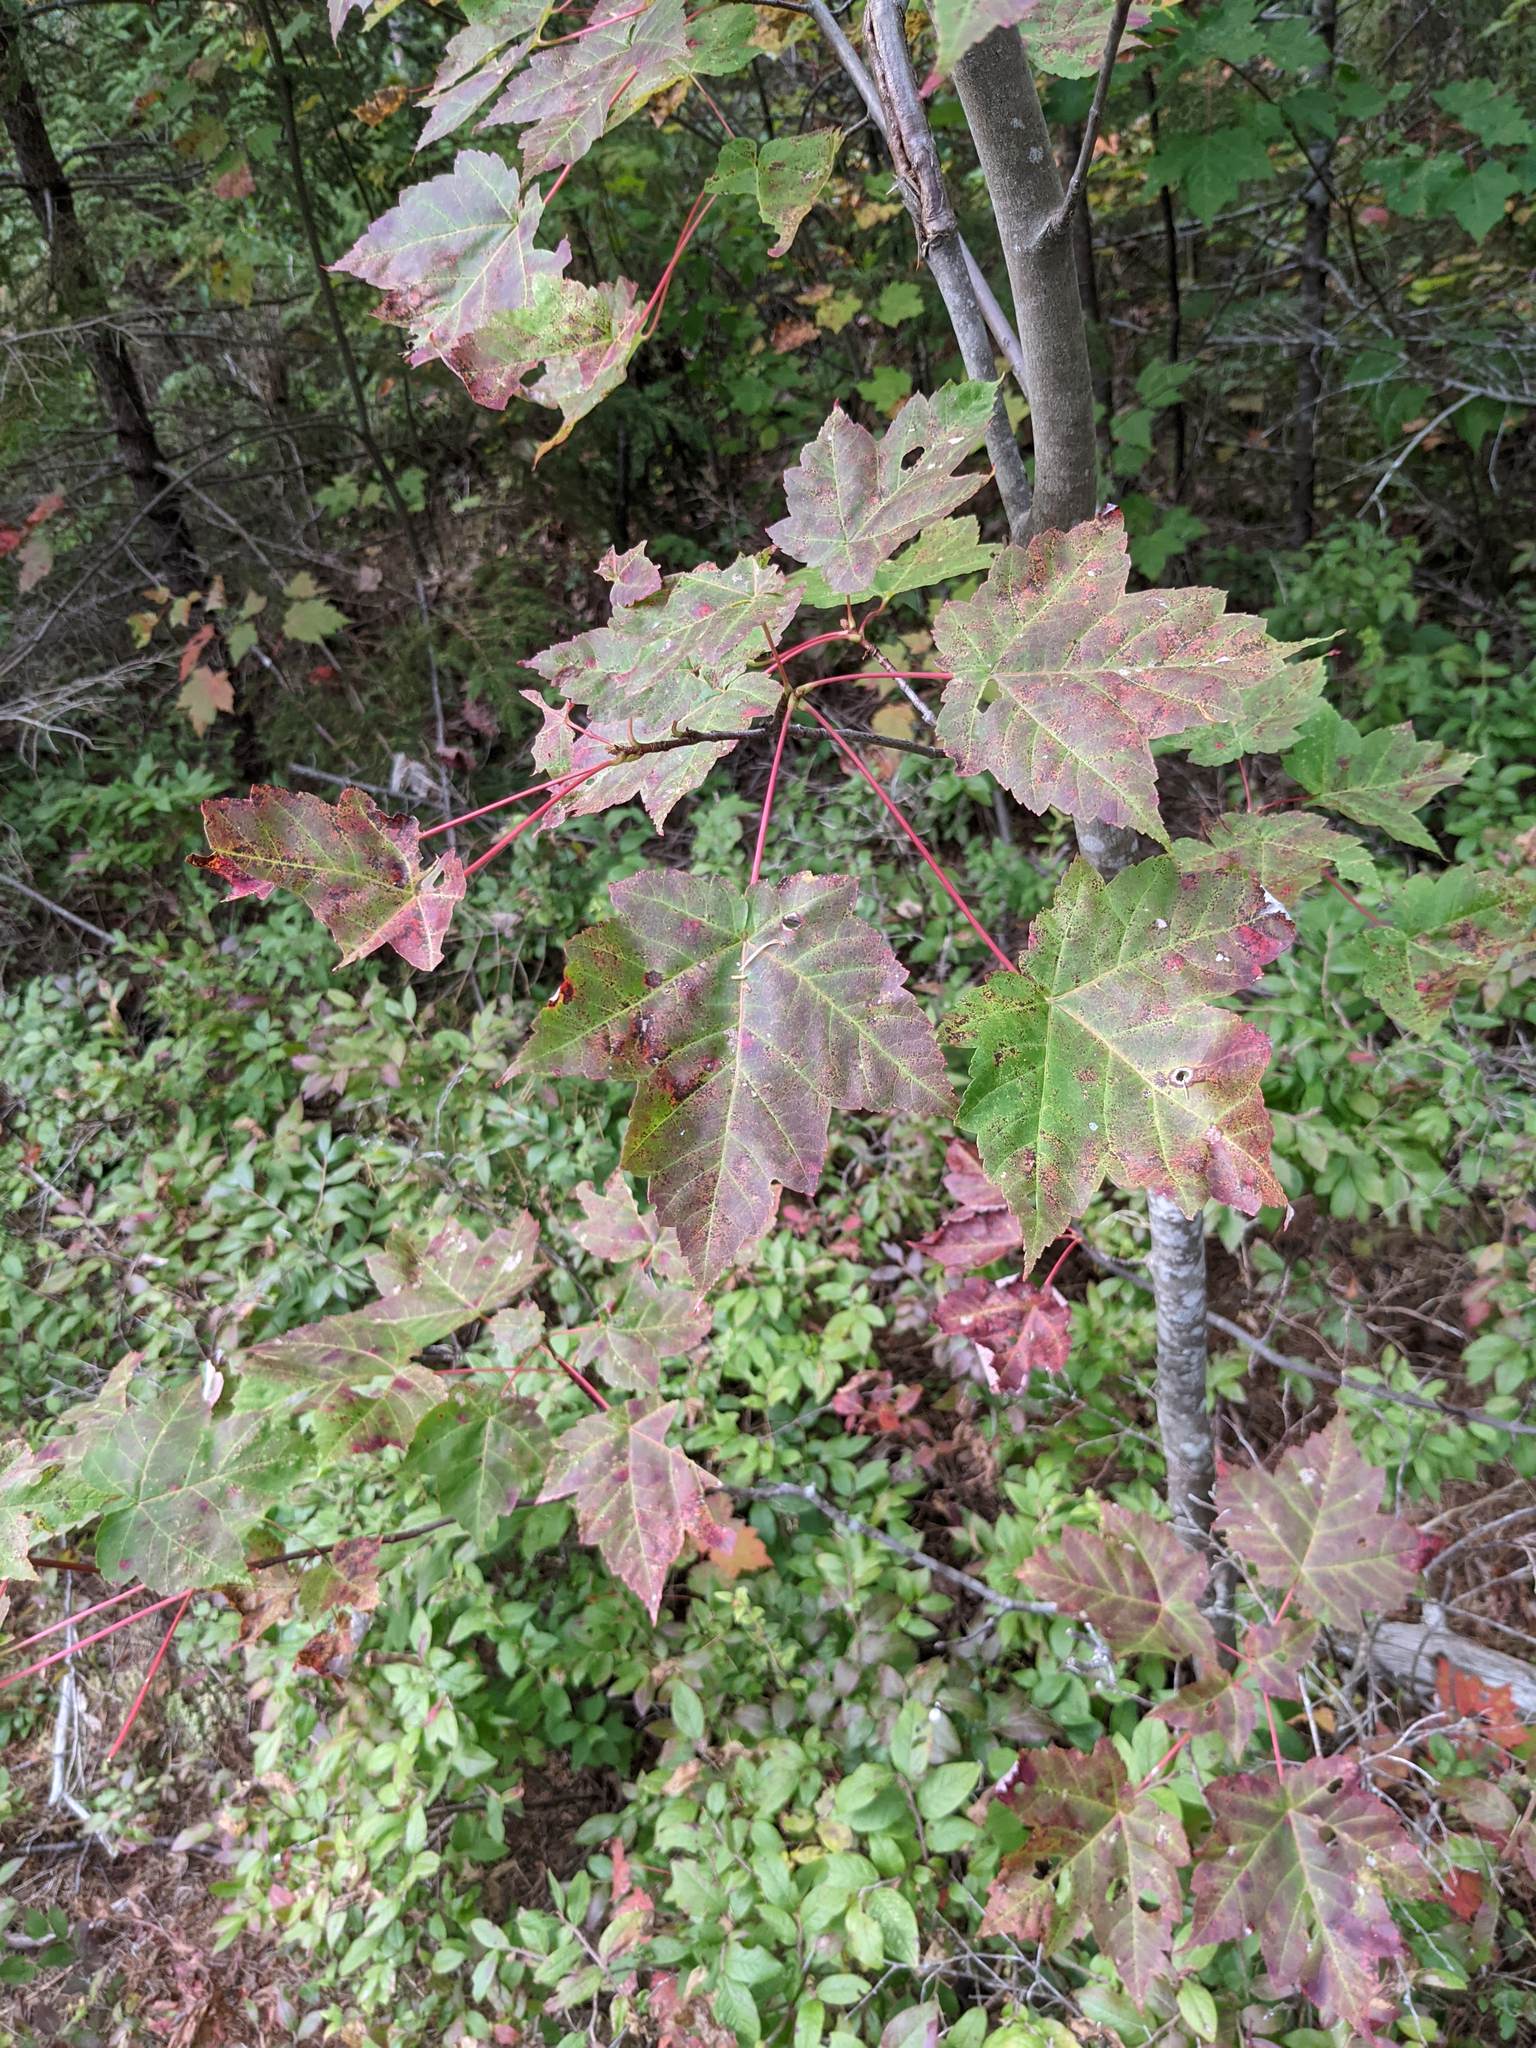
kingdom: Plantae
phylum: Tracheophyta
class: Magnoliopsida
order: Sapindales
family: Sapindaceae
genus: Acer
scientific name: Acer rubrum
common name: Red maple
